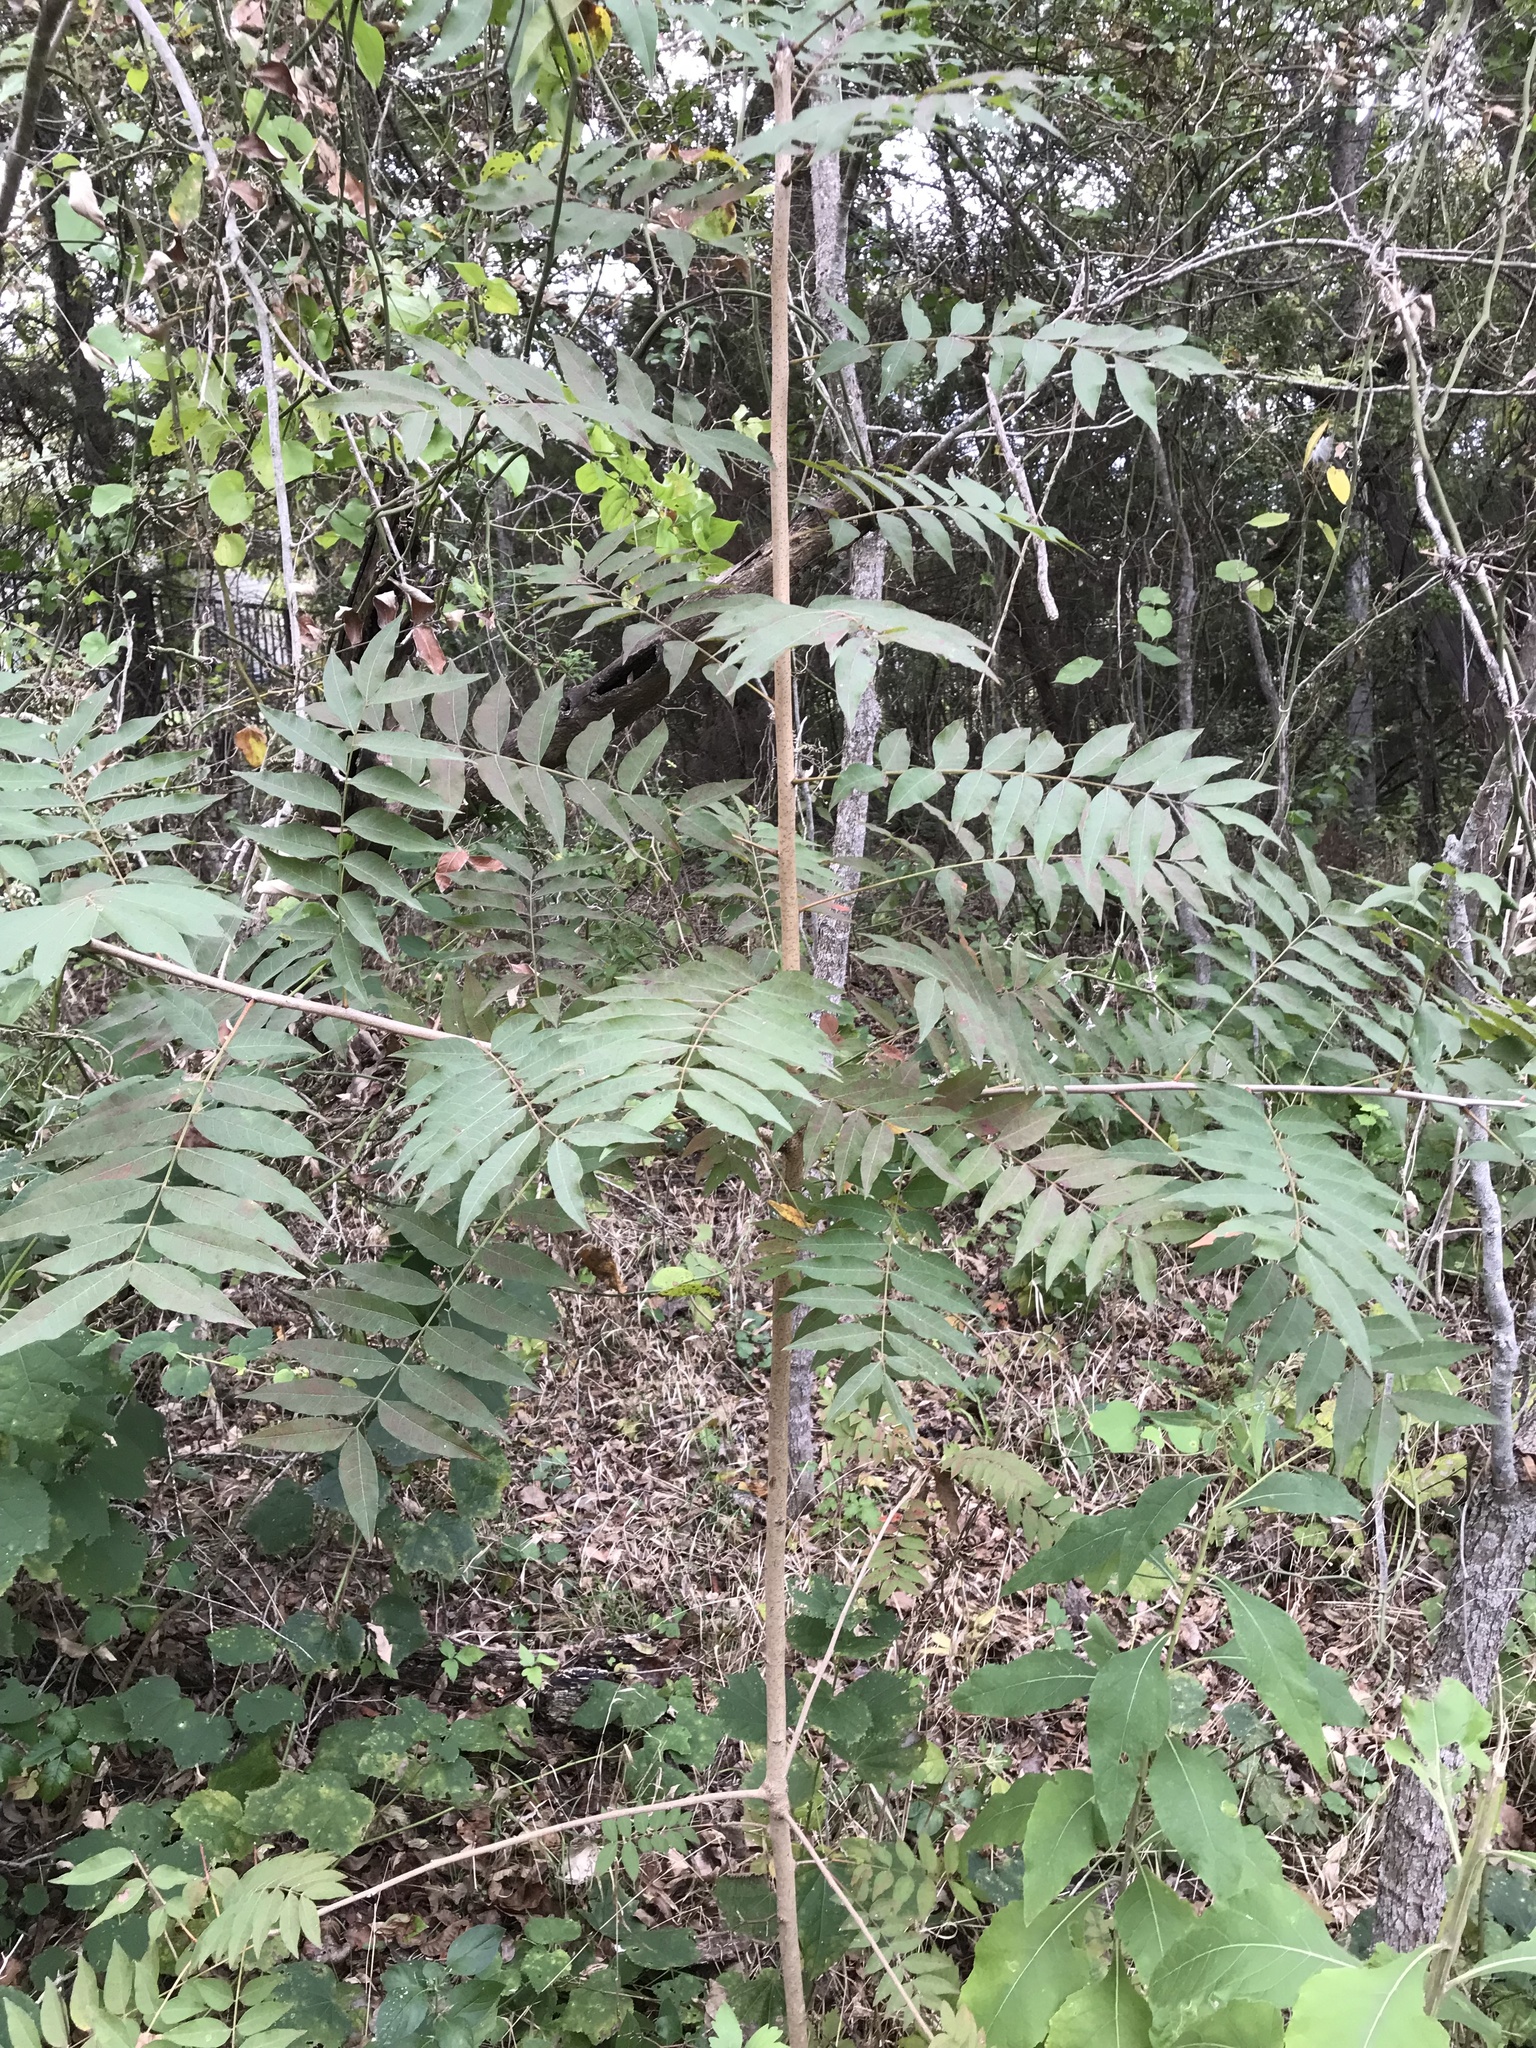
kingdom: Plantae
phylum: Tracheophyta
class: Magnoliopsida
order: Sapindales
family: Anacardiaceae
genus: Pistacia
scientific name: Pistacia chinensis
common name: Chinese pistache
